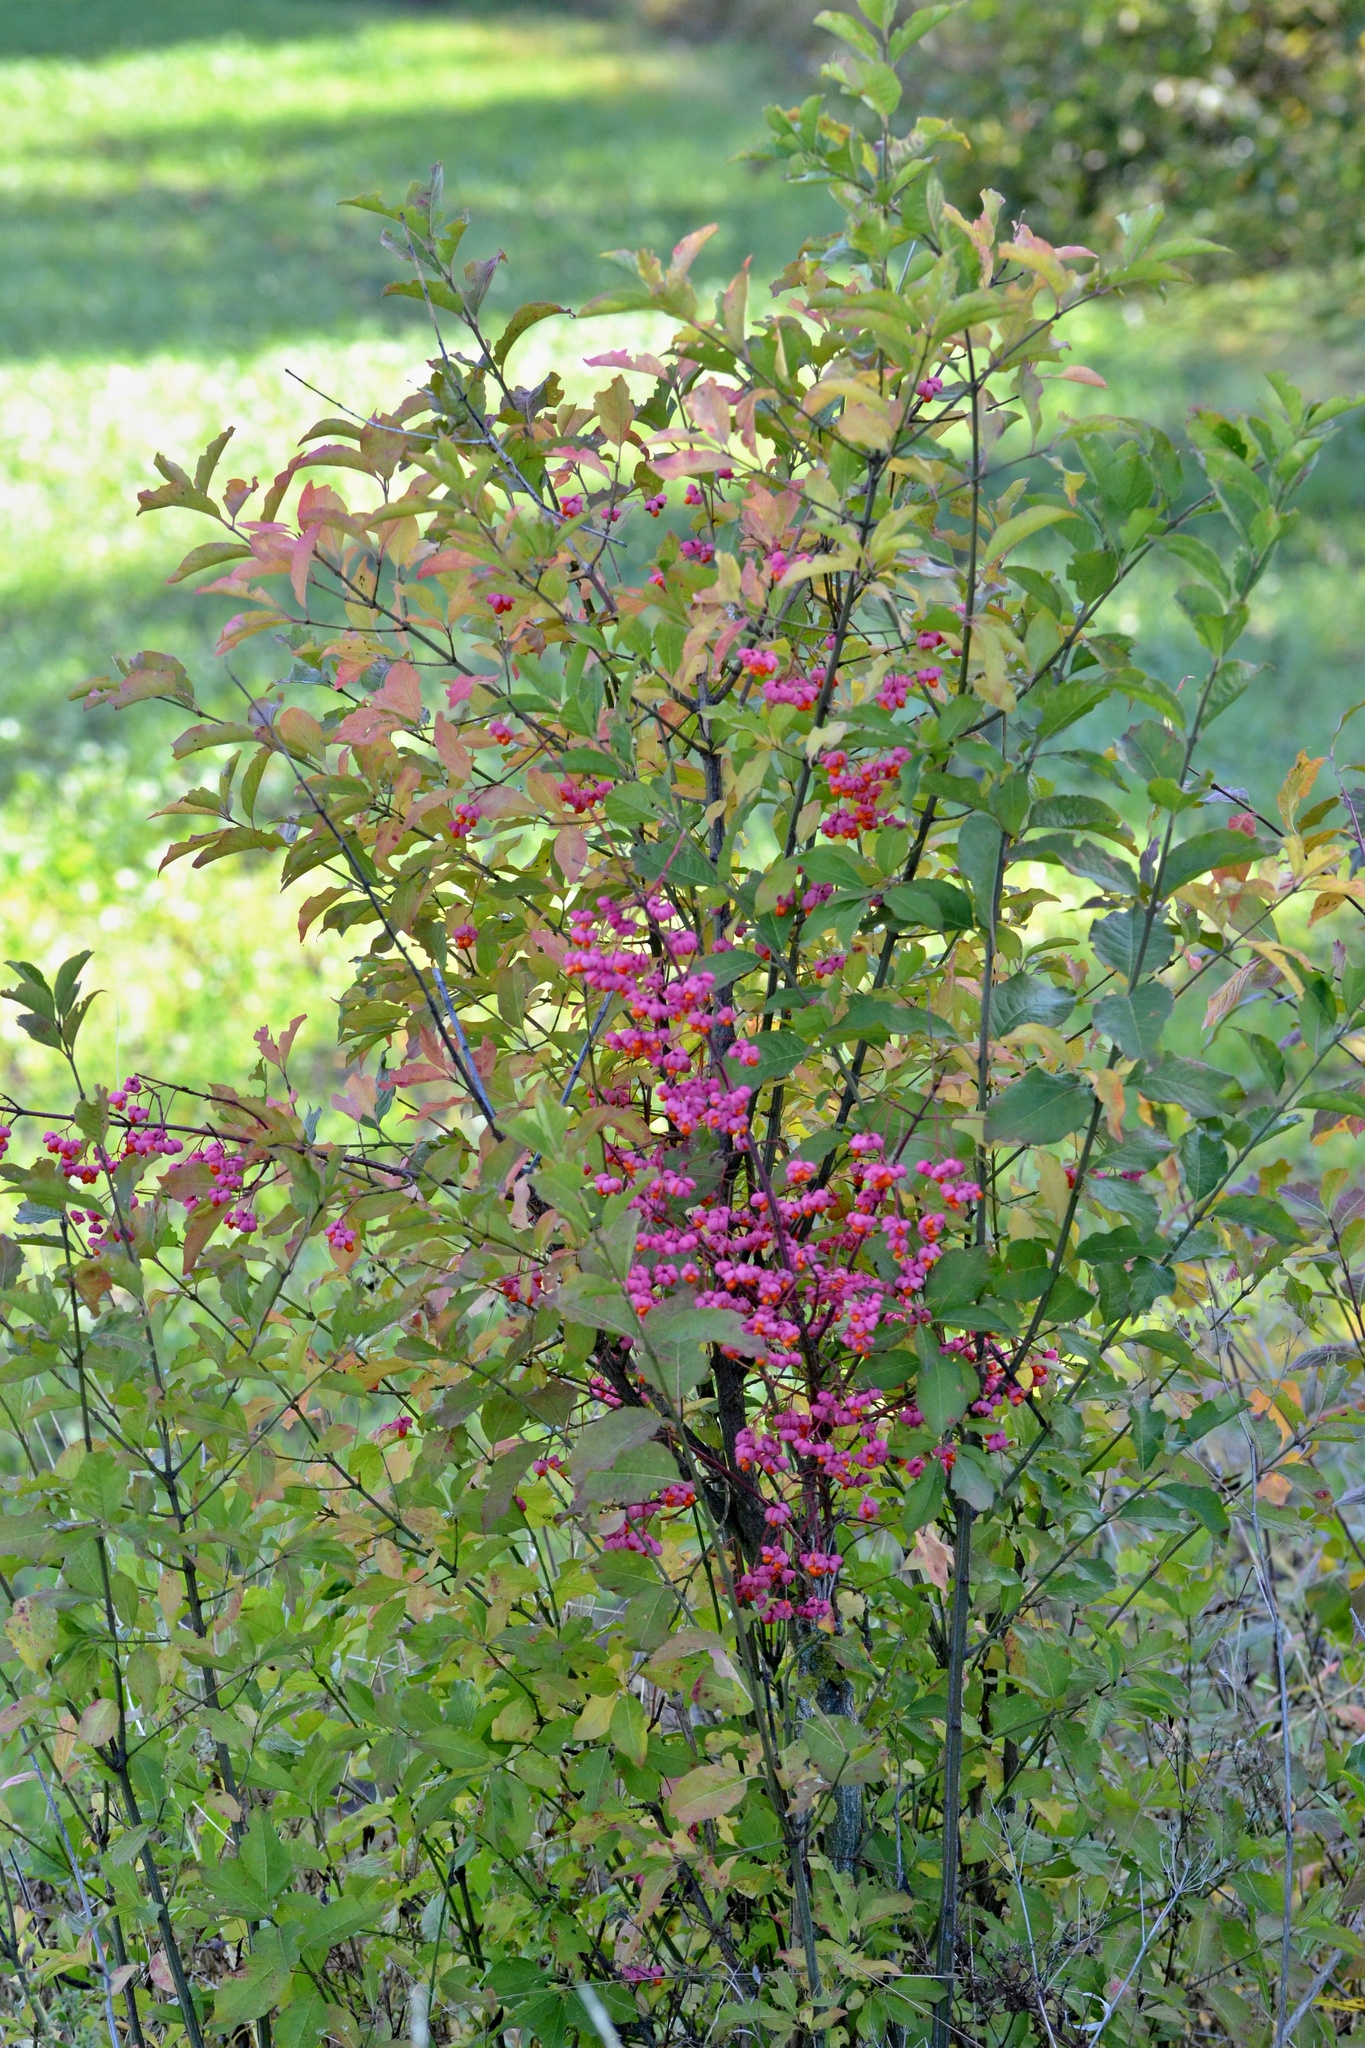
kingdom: Plantae
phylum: Tracheophyta
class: Magnoliopsida
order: Celastrales
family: Celastraceae
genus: Euonymus
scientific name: Euonymus europaeus
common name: Spindle
